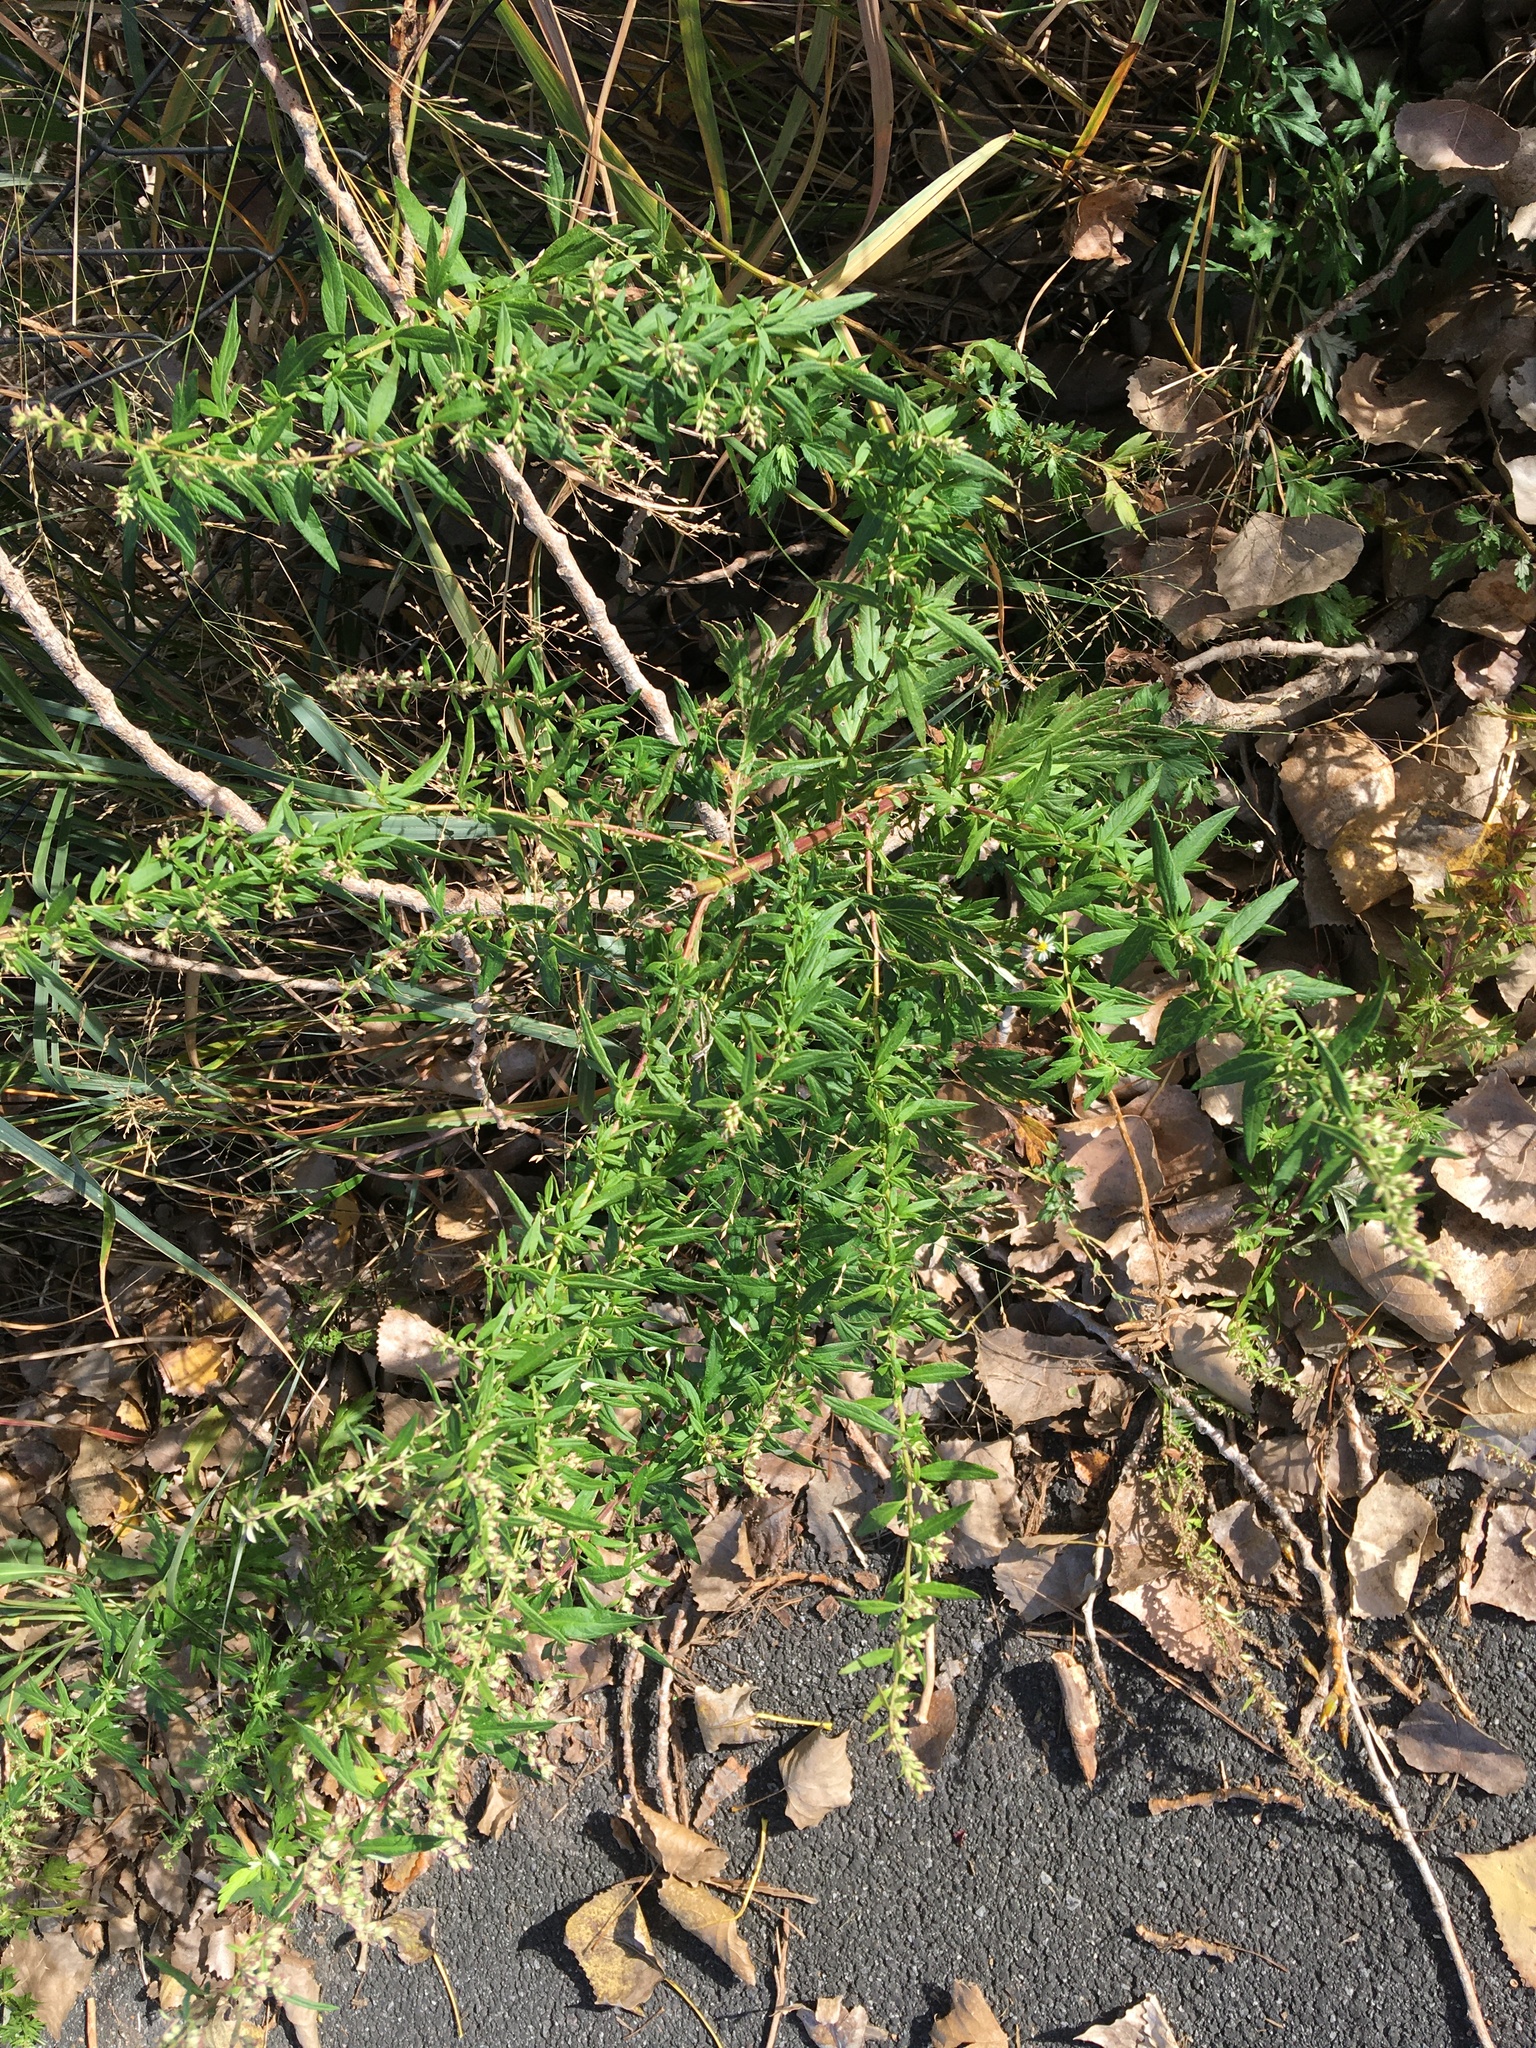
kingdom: Plantae
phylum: Tracheophyta
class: Magnoliopsida
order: Asterales
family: Asteraceae
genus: Artemisia
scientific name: Artemisia vulgaris
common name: Mugwort
